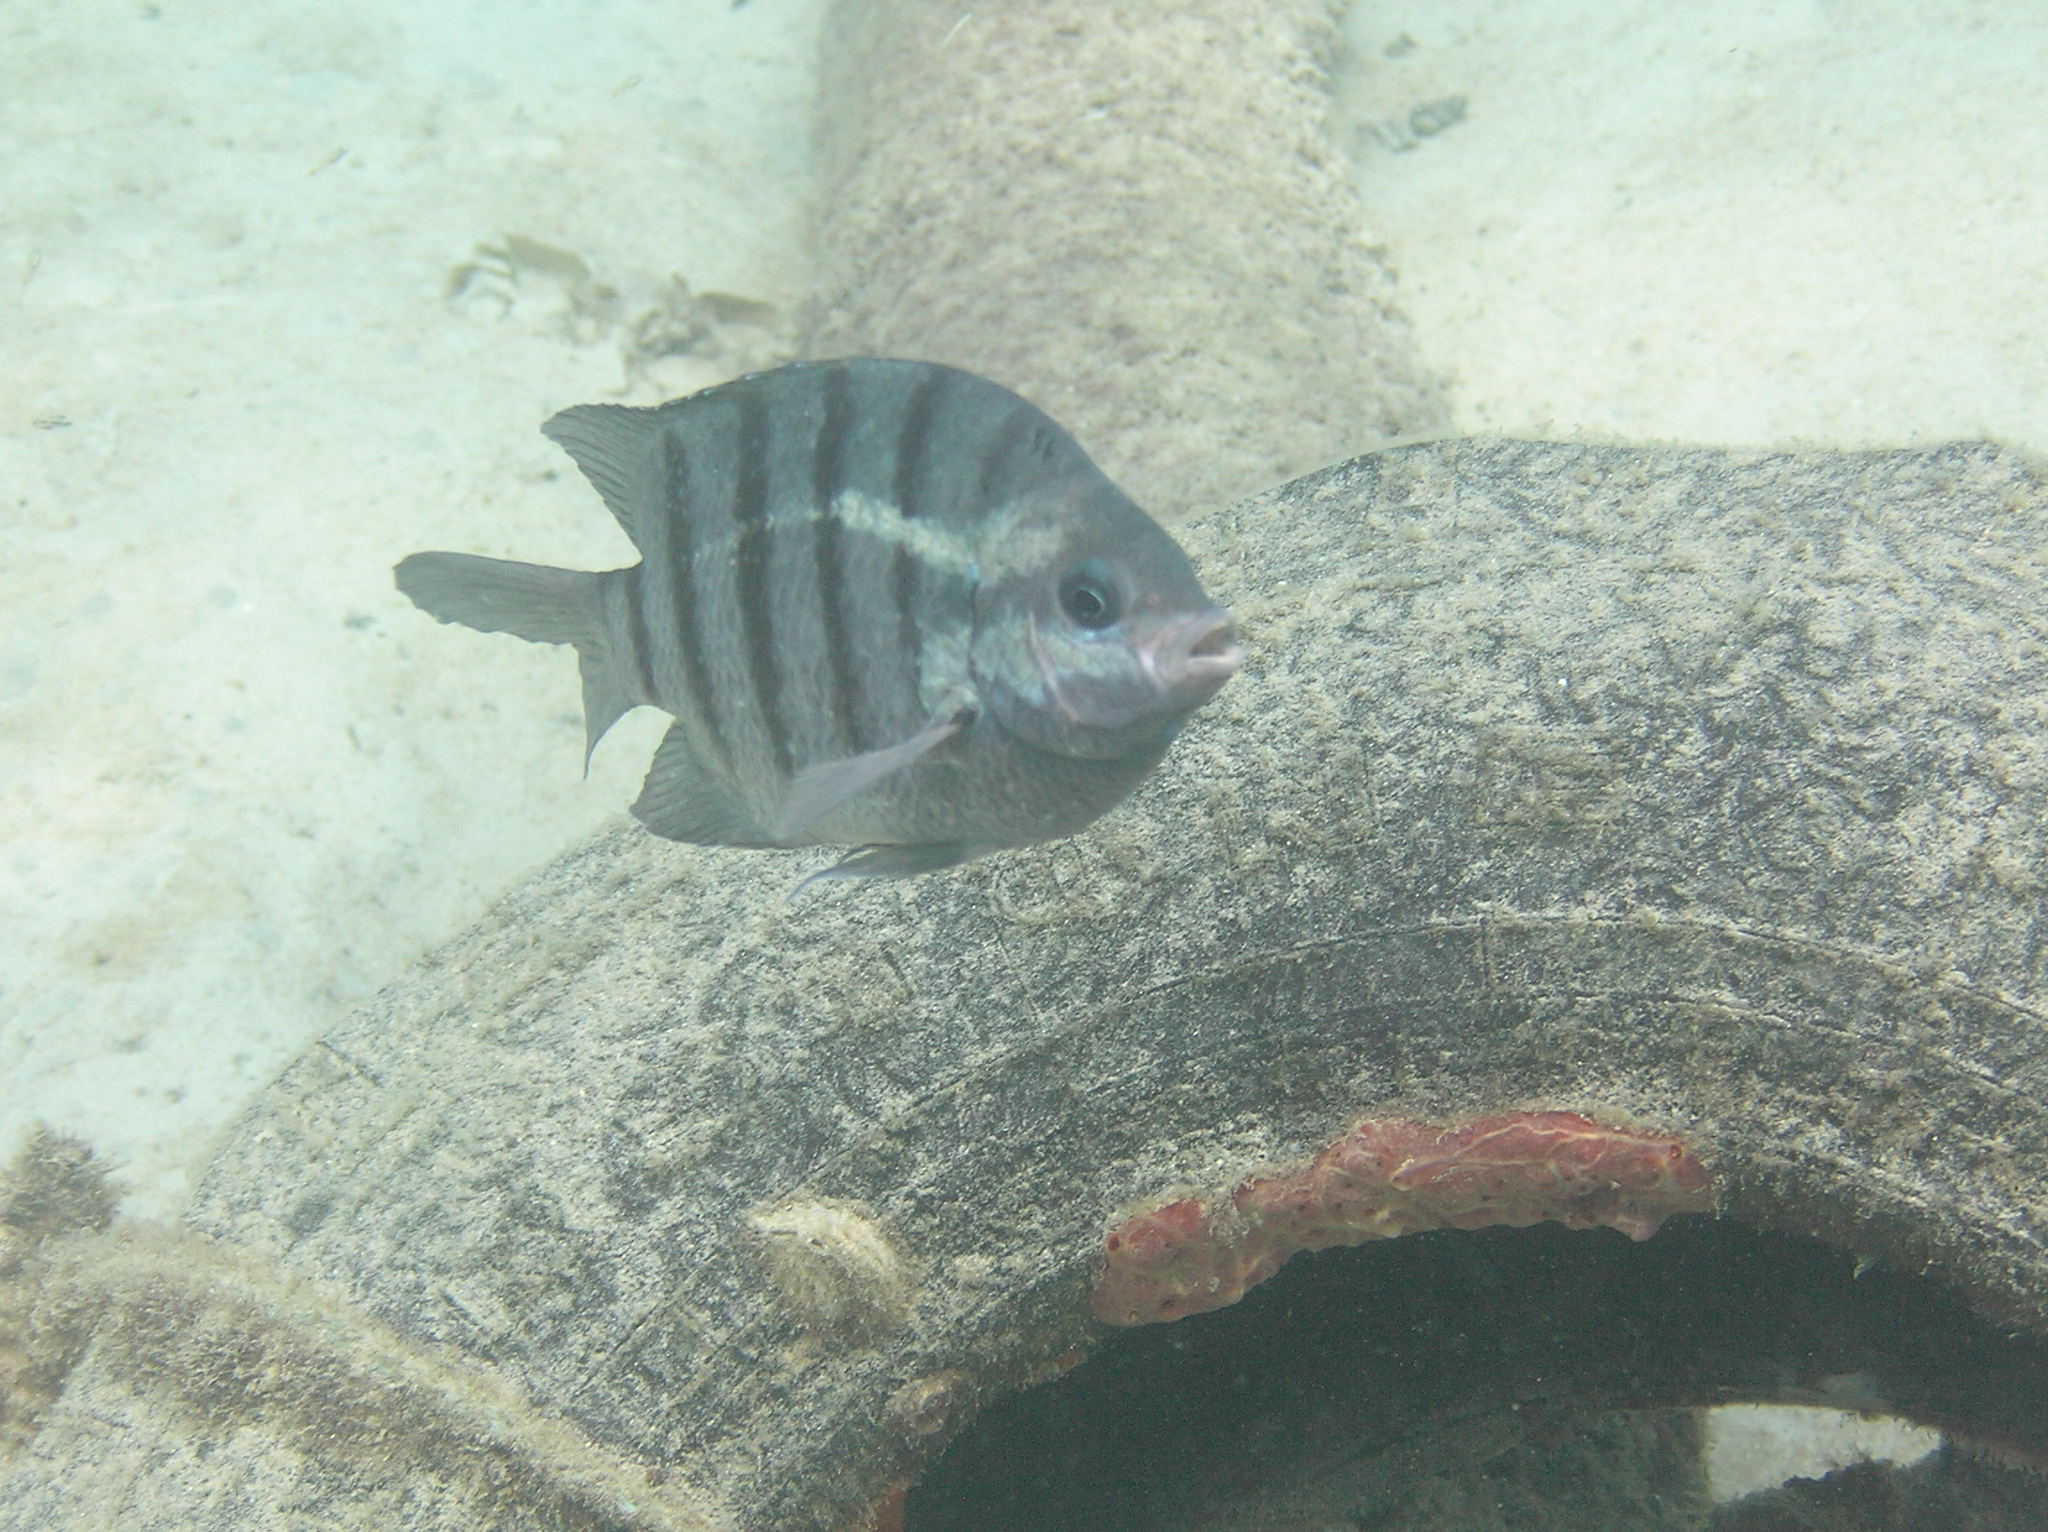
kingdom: Animalia
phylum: Chordata
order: Perciformes
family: Pomacentridae
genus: Abudefduf
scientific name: Abudefduf bengalensis
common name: Bengal sergeant
